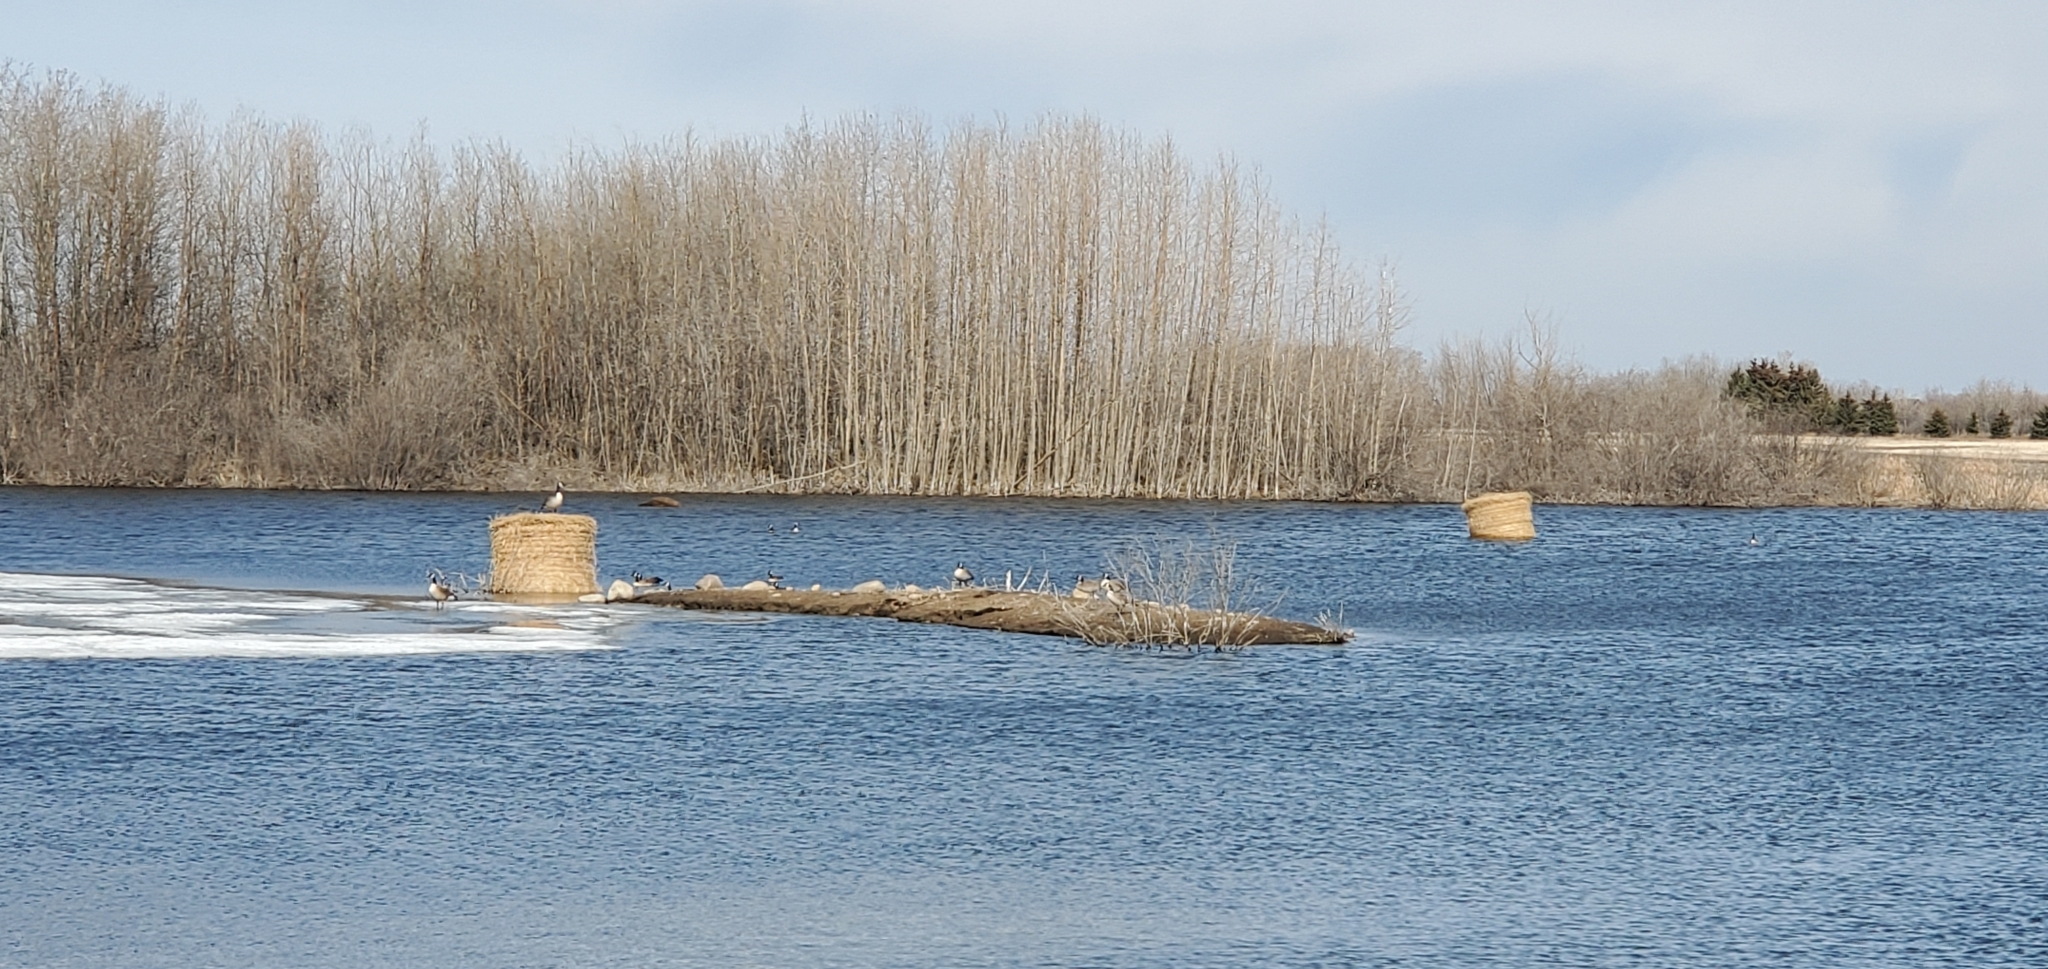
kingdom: Animalia
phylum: Chordata
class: Aves
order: Anseriformes
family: Anatidae
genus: Branta
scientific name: Branta canadensis
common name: Canada goose
